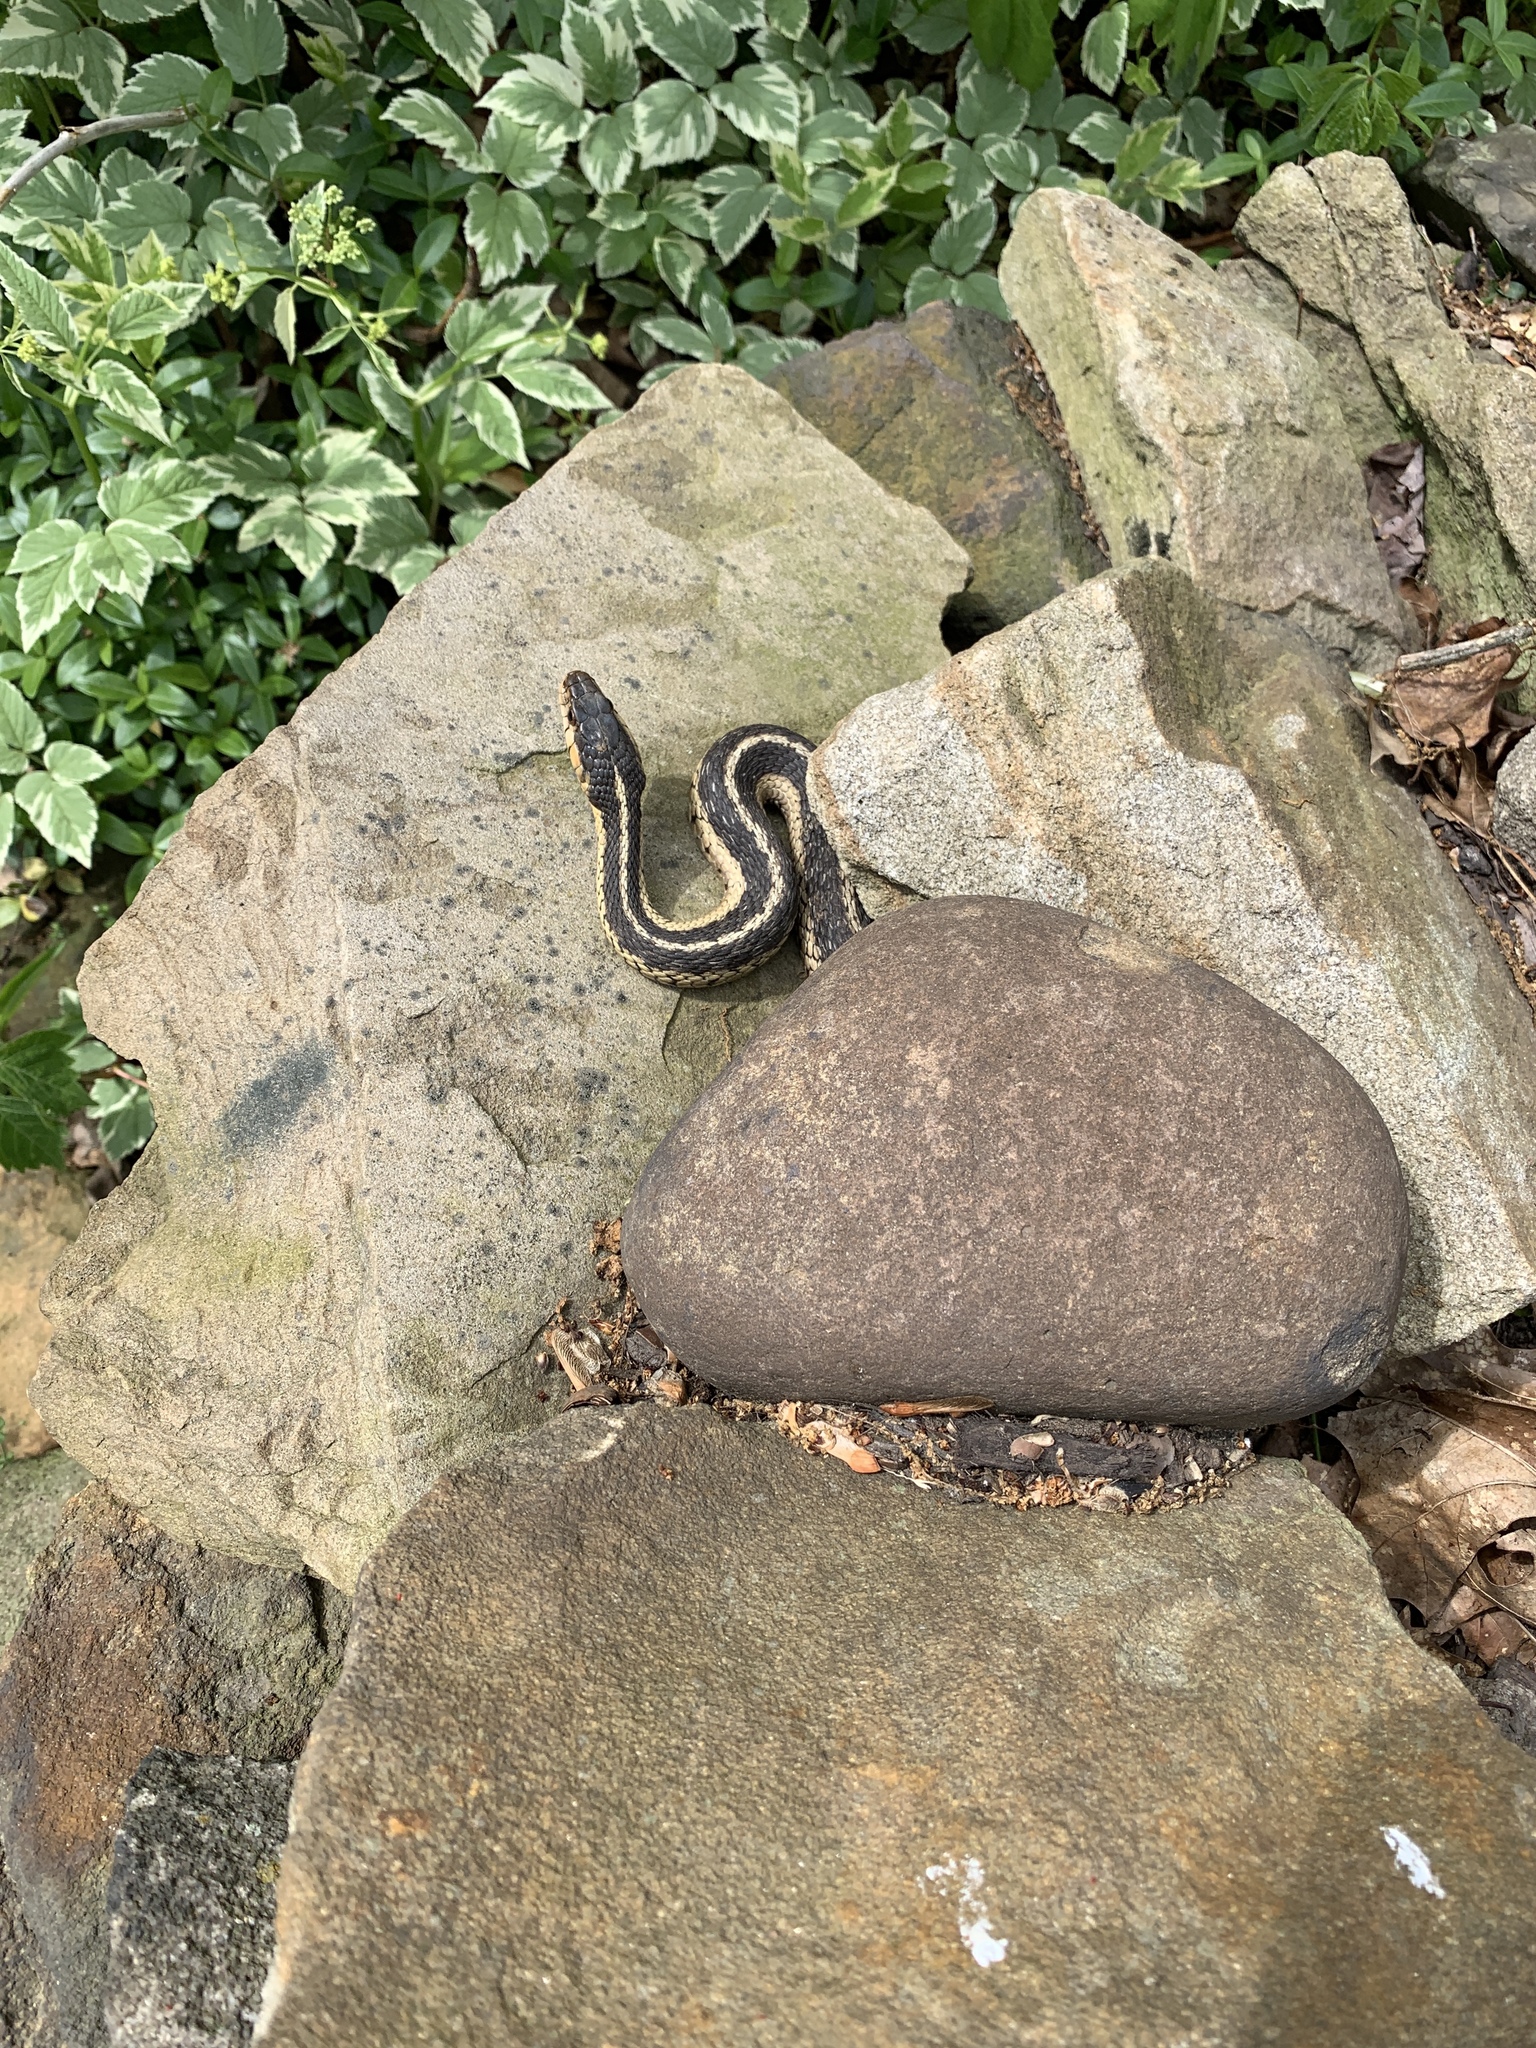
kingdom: Animalia
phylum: Chordata
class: Squamata
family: Colubridae
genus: Thamnophis
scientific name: Thamnophis sirtalis
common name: Common garter snake
